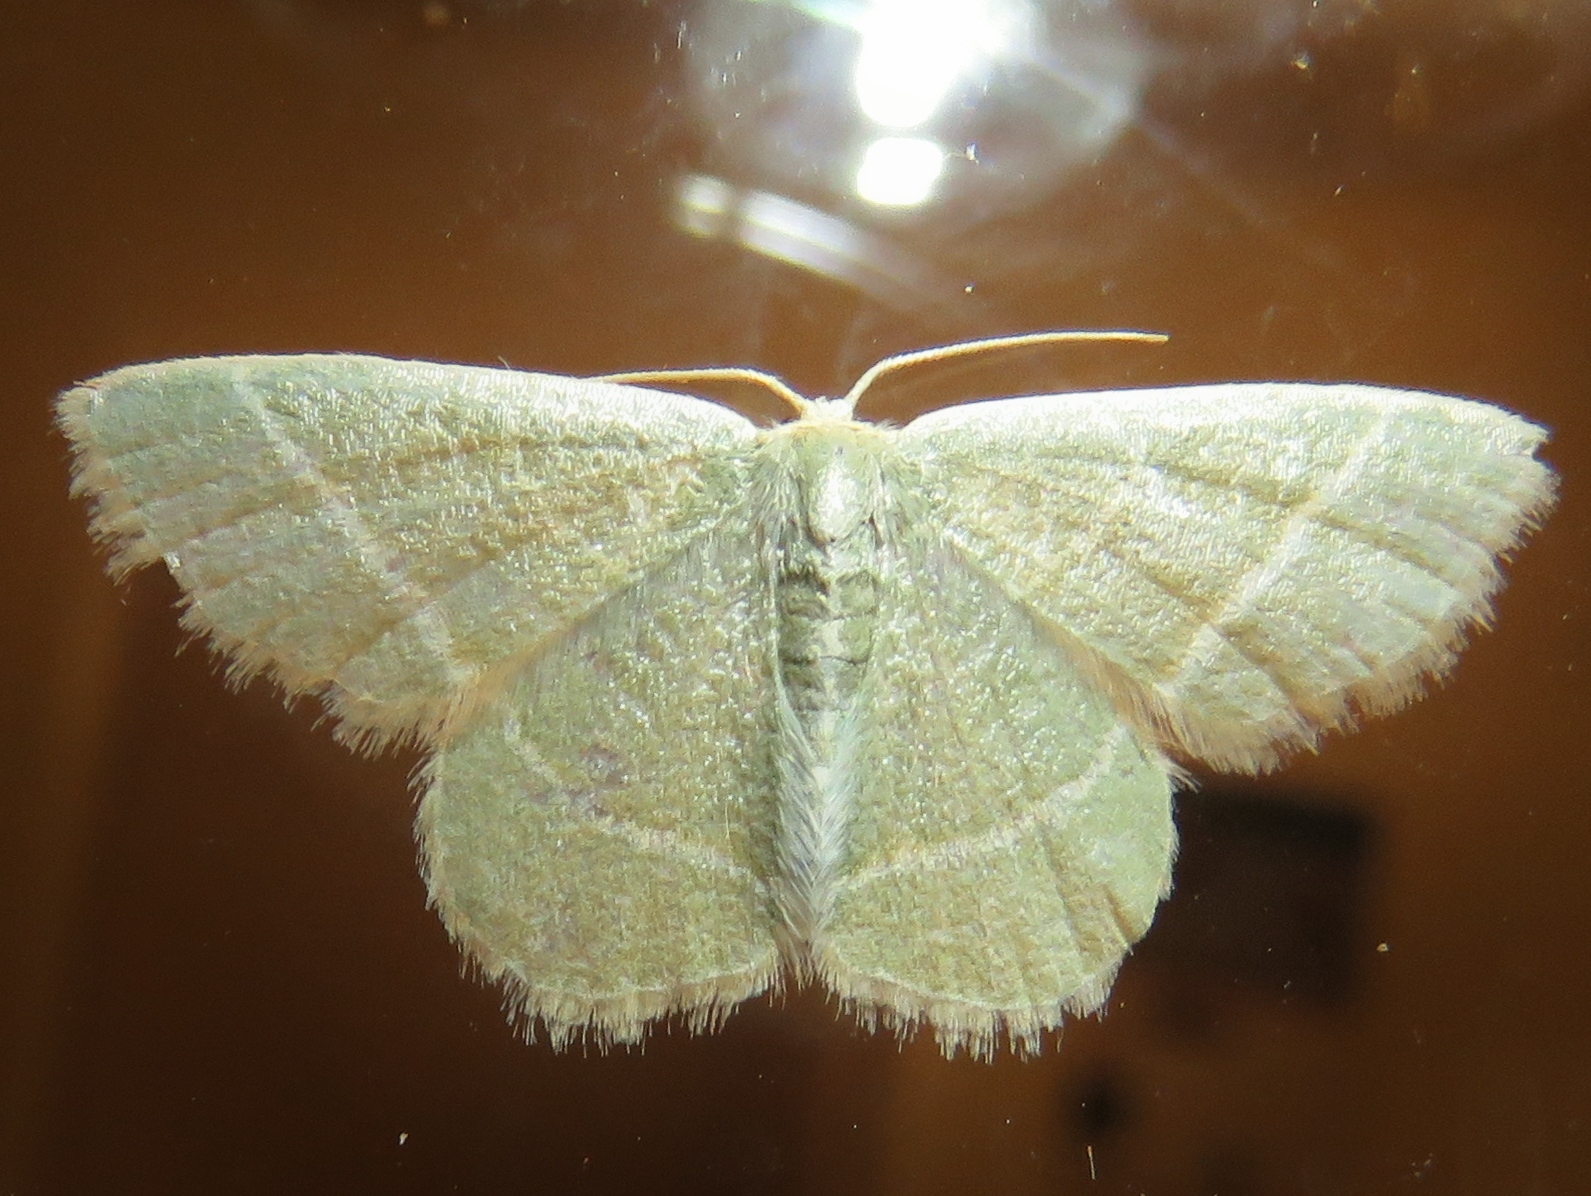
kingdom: Animalia
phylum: Arthropoda
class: Insecta
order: Lepidoptera
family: Geometridae
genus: Chlorochlamys
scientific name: Chlorochlamys chloroleucaria
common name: Blackberry looper
